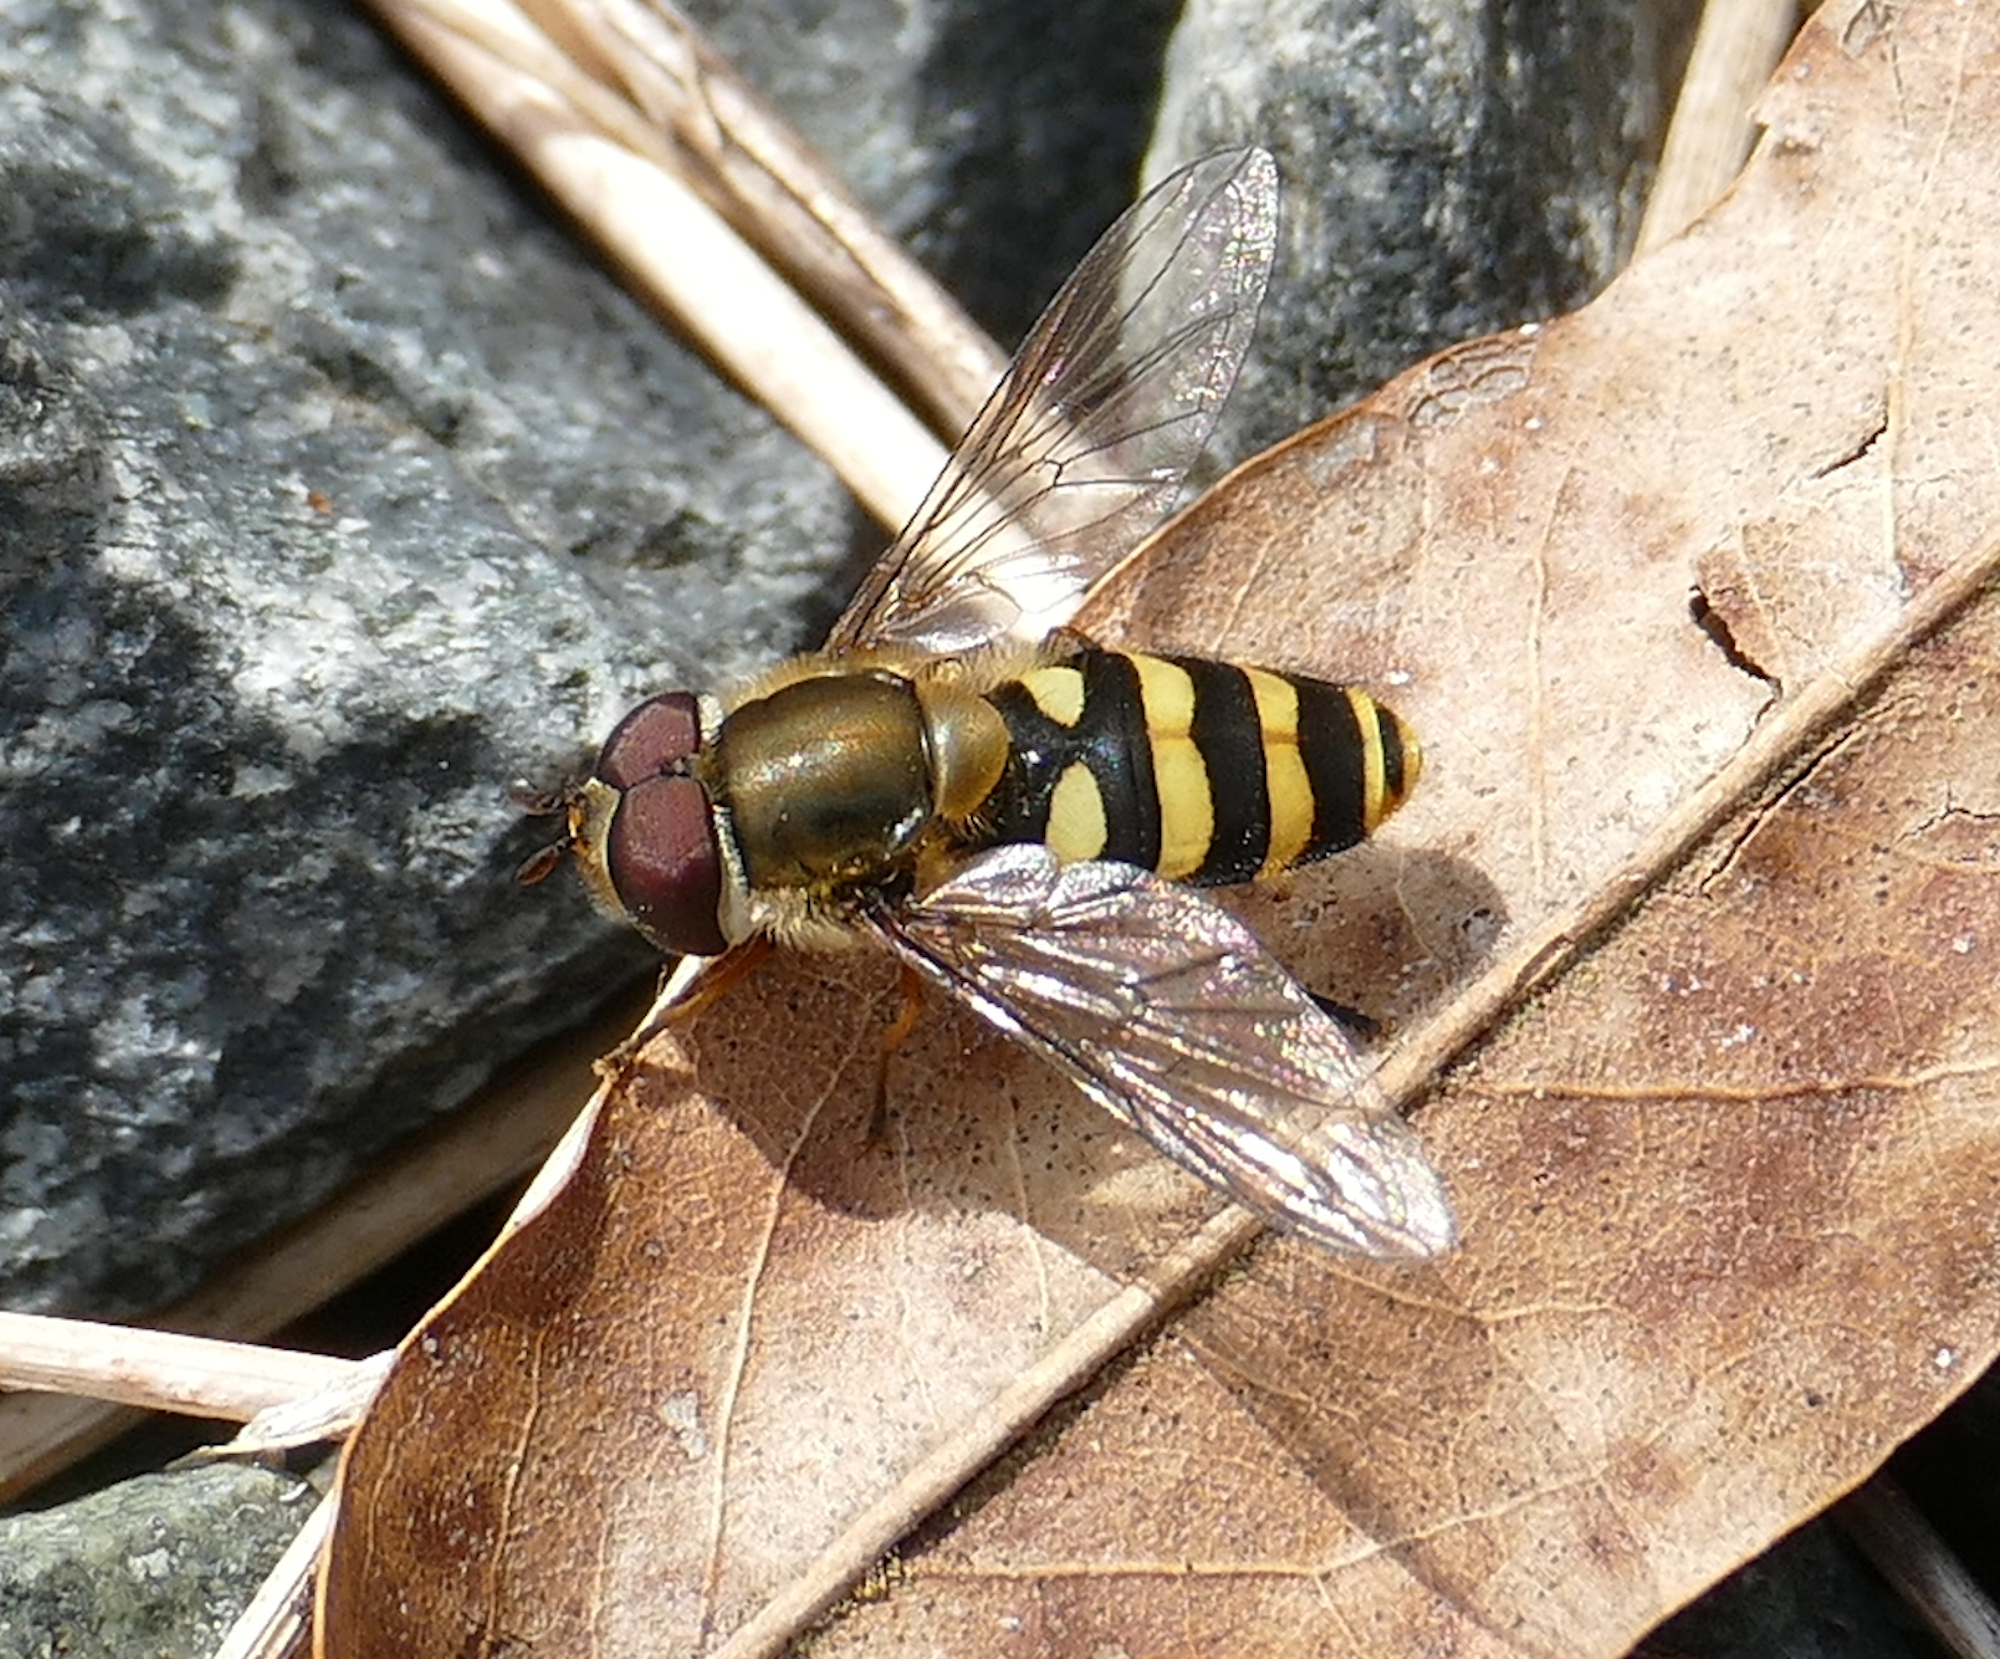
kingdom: Animalia
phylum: Arthropoda
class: Insecta
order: Diptera
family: Syrphidae
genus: Syrphus
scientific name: Syrphus torvus
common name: Hairy-eyed flower fly
